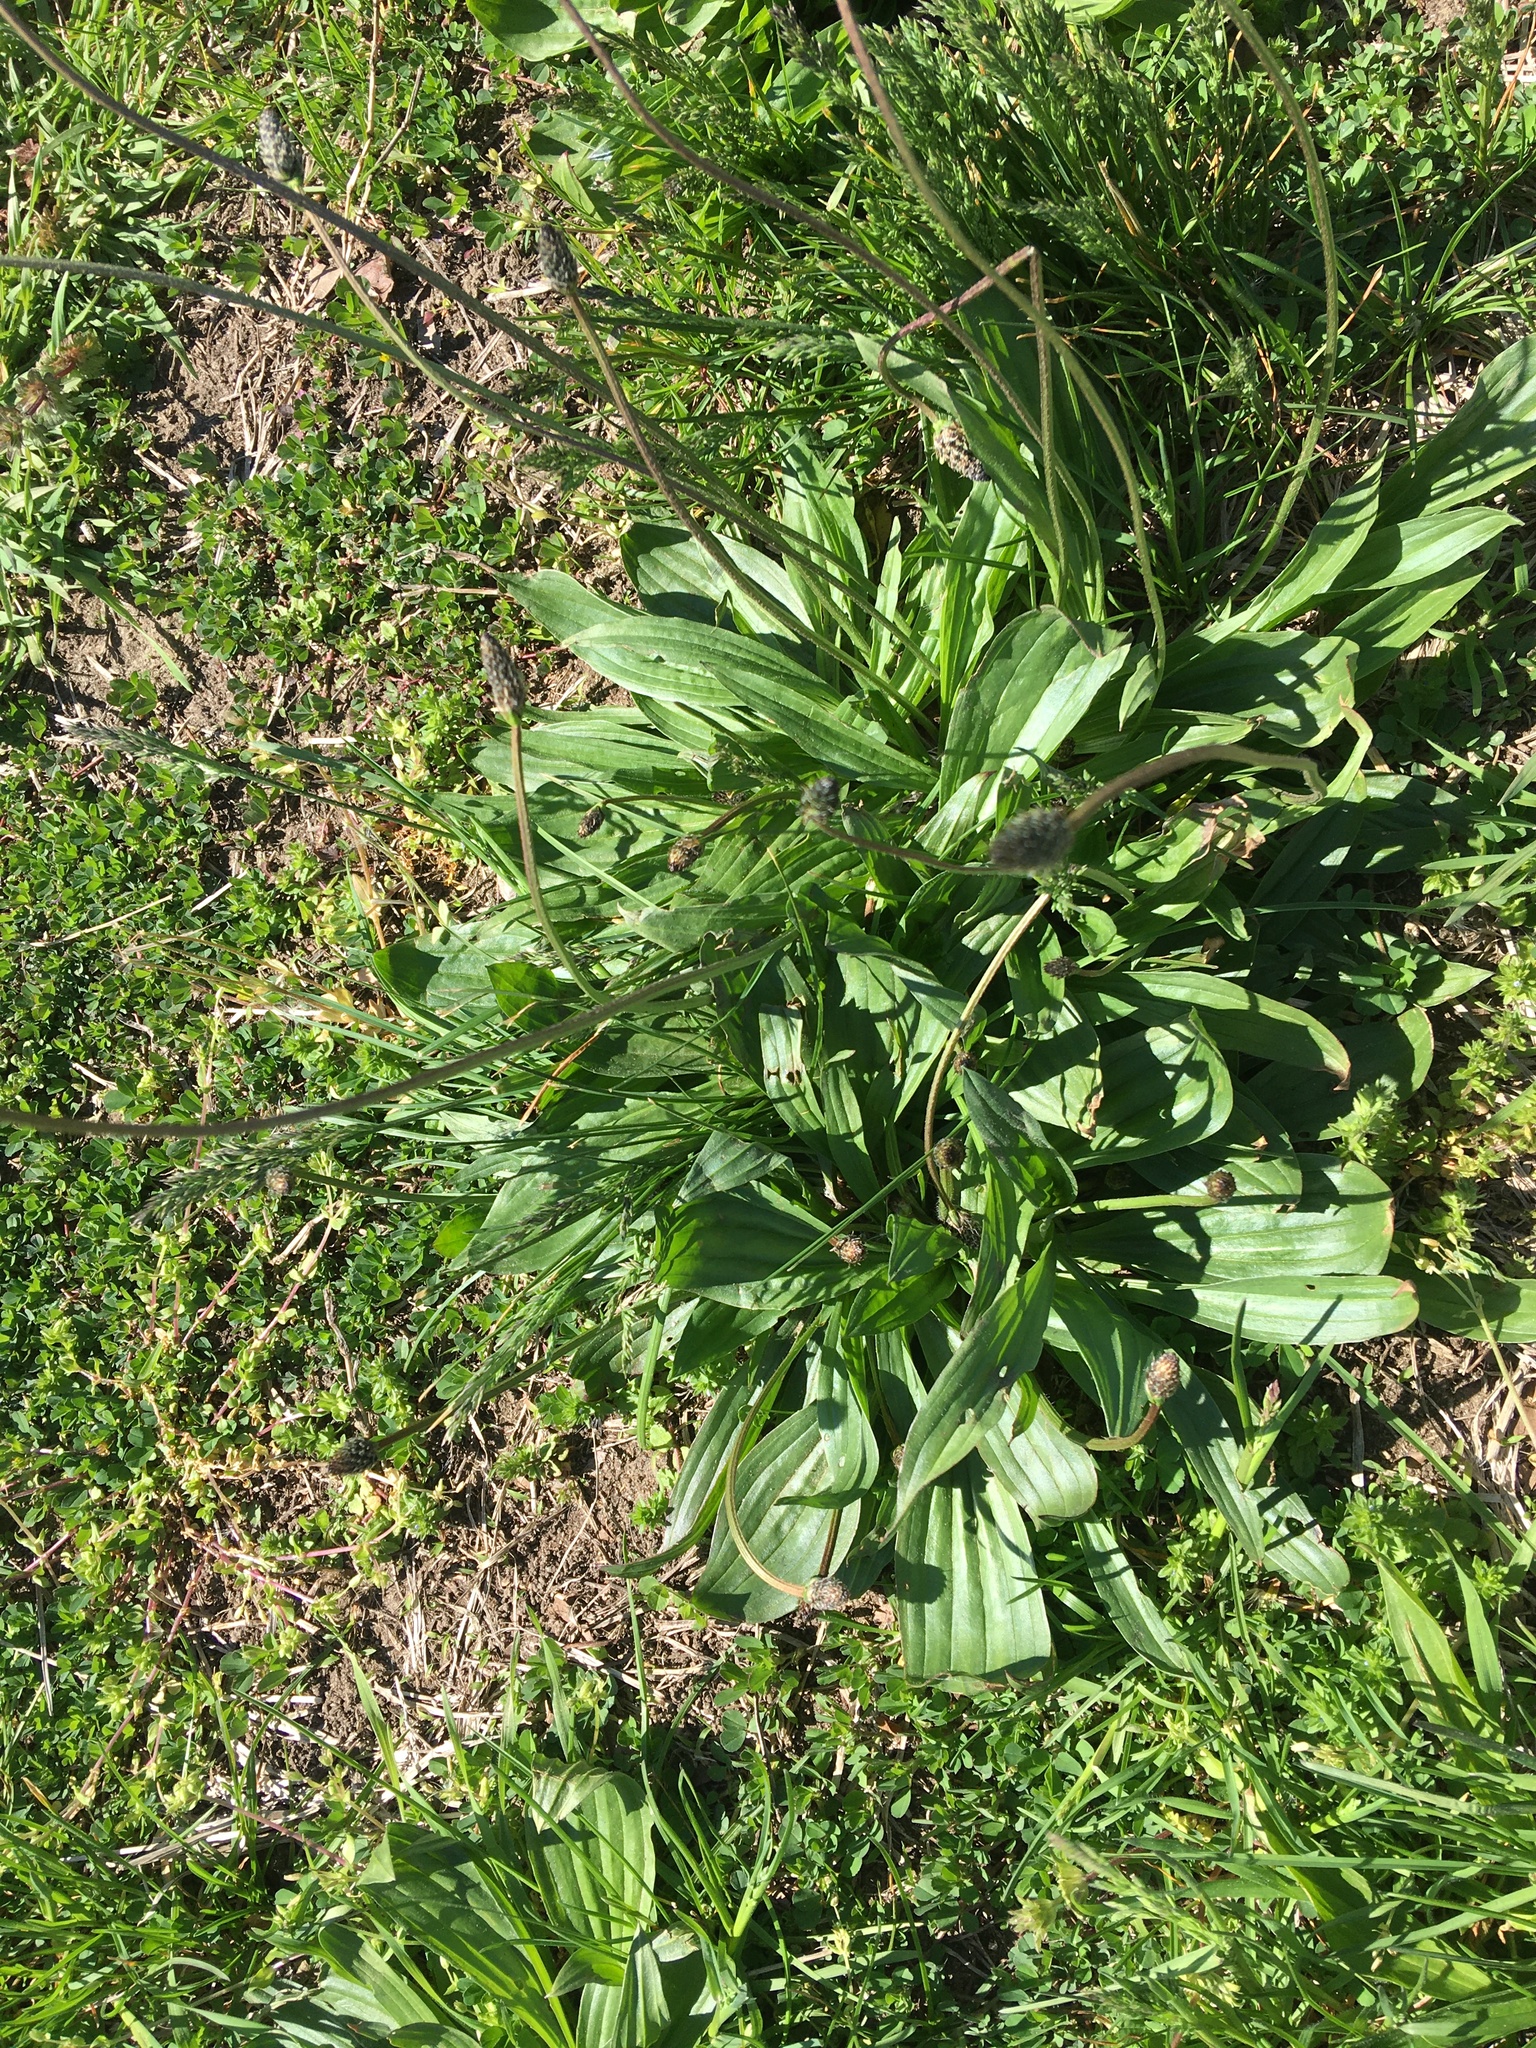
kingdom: Plantae
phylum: Tracheophyta
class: Magnoliopsida
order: Lamiales
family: Plantaginaceae
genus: Plantago
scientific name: Plantago lanceolata
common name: Ribwort plantain
